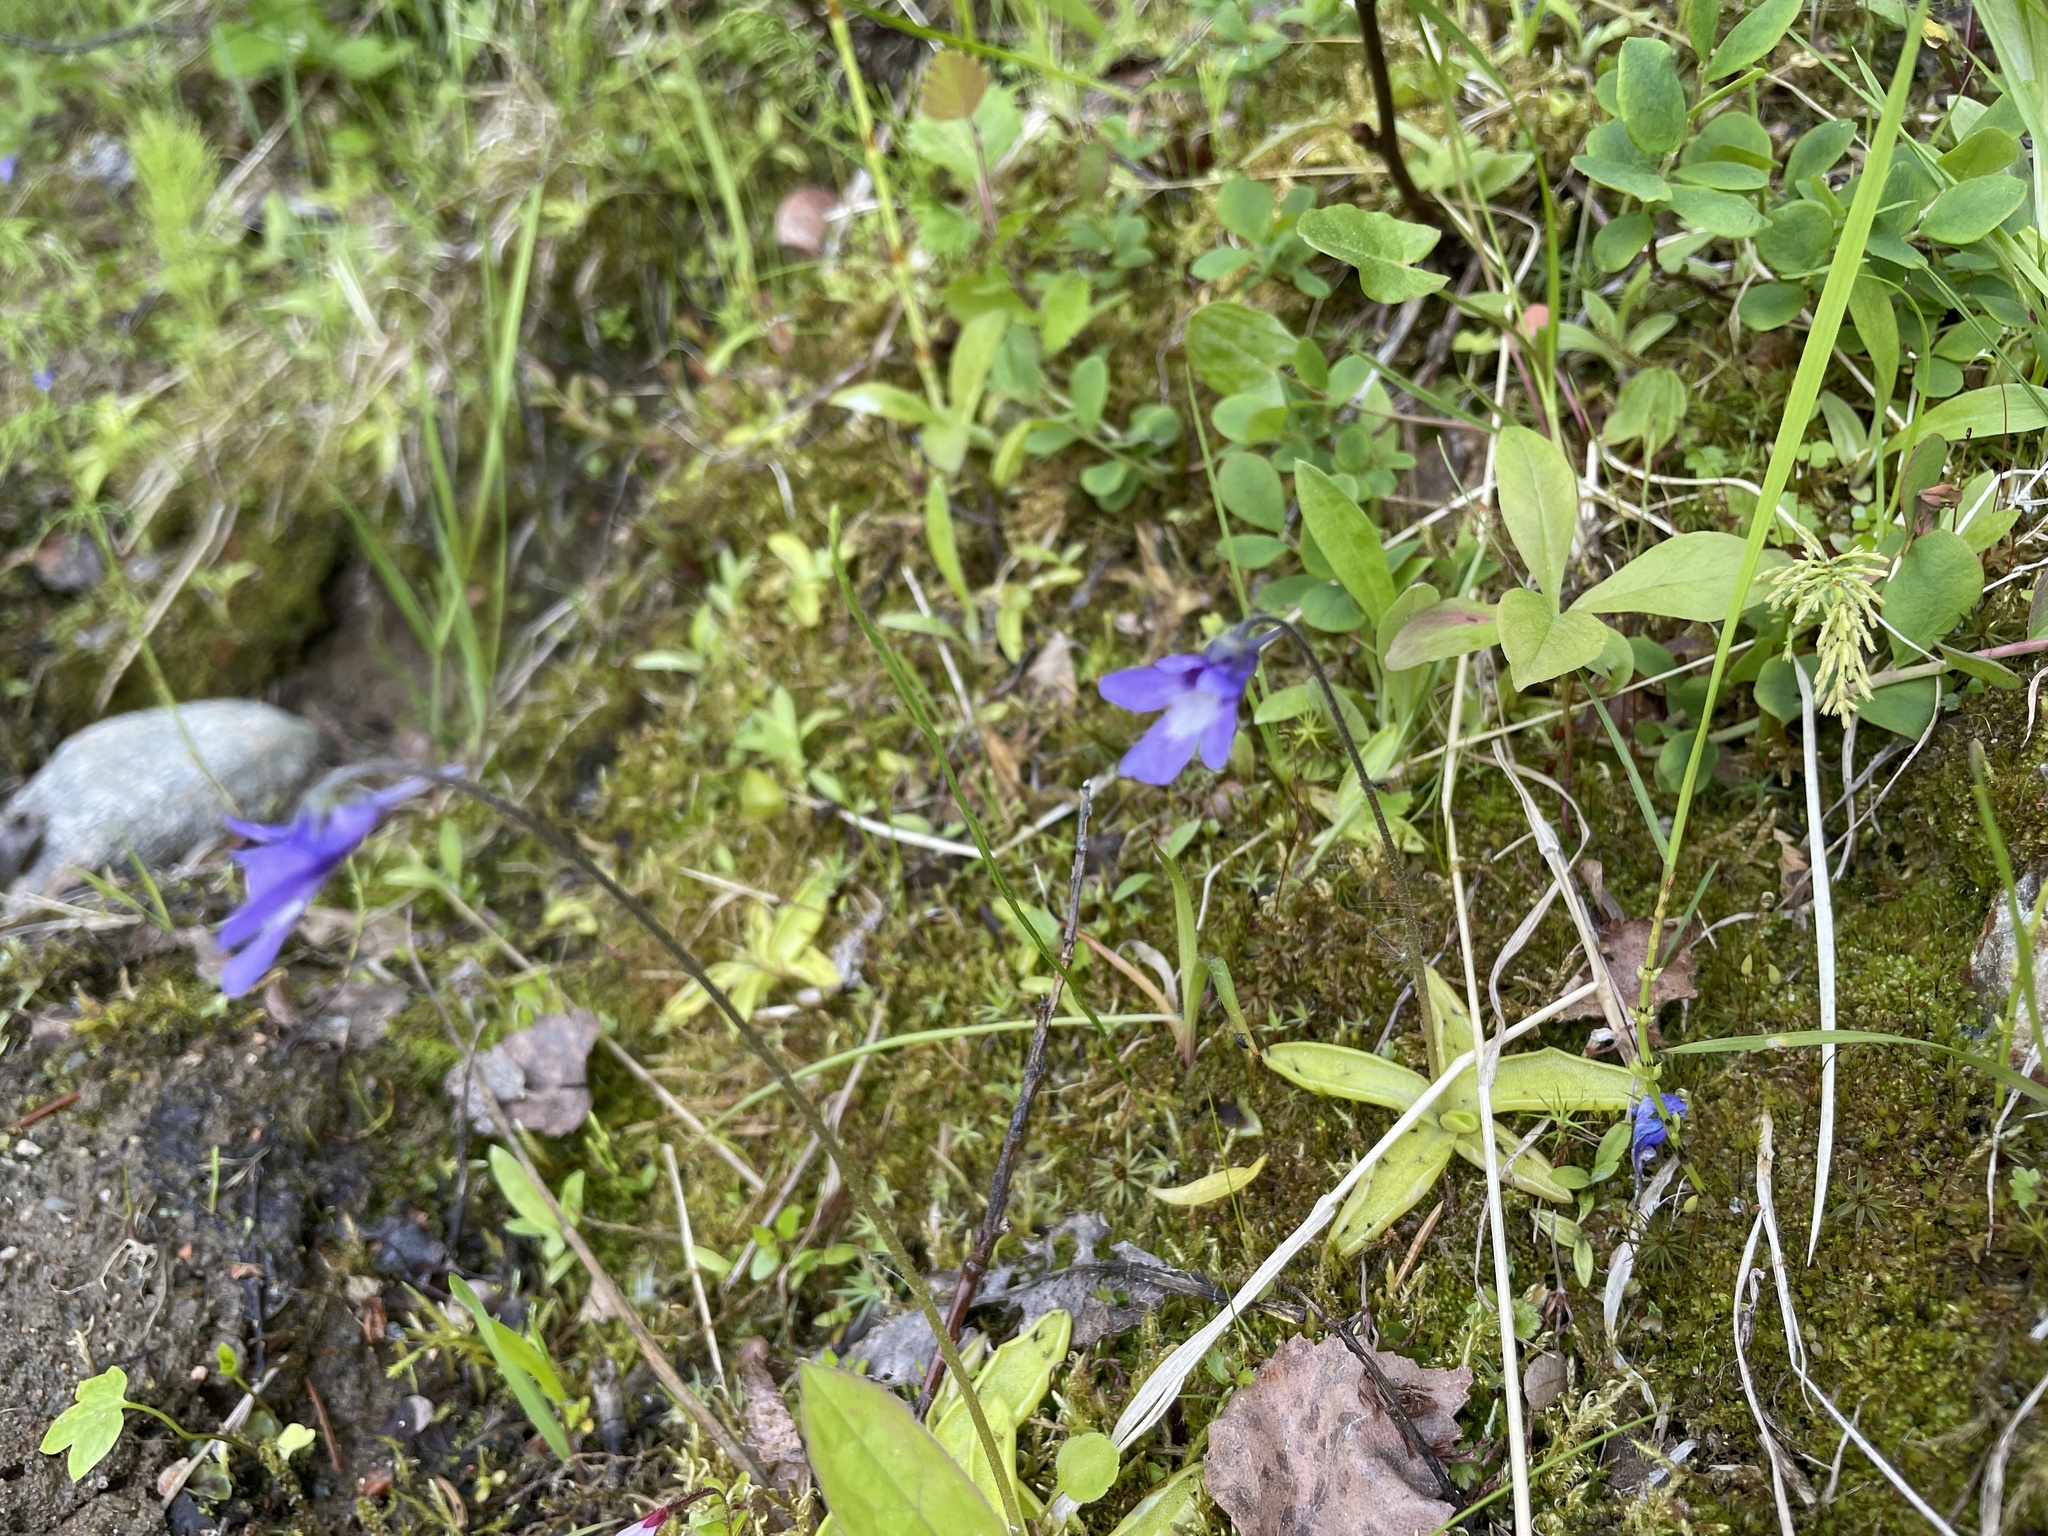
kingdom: Plantae
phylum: Tracheophyta
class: Magnoliopsida
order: Lamiales
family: Lentibulariaceae
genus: Pinguicula
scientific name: Pinguicula vulgaris
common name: Common butterwort
